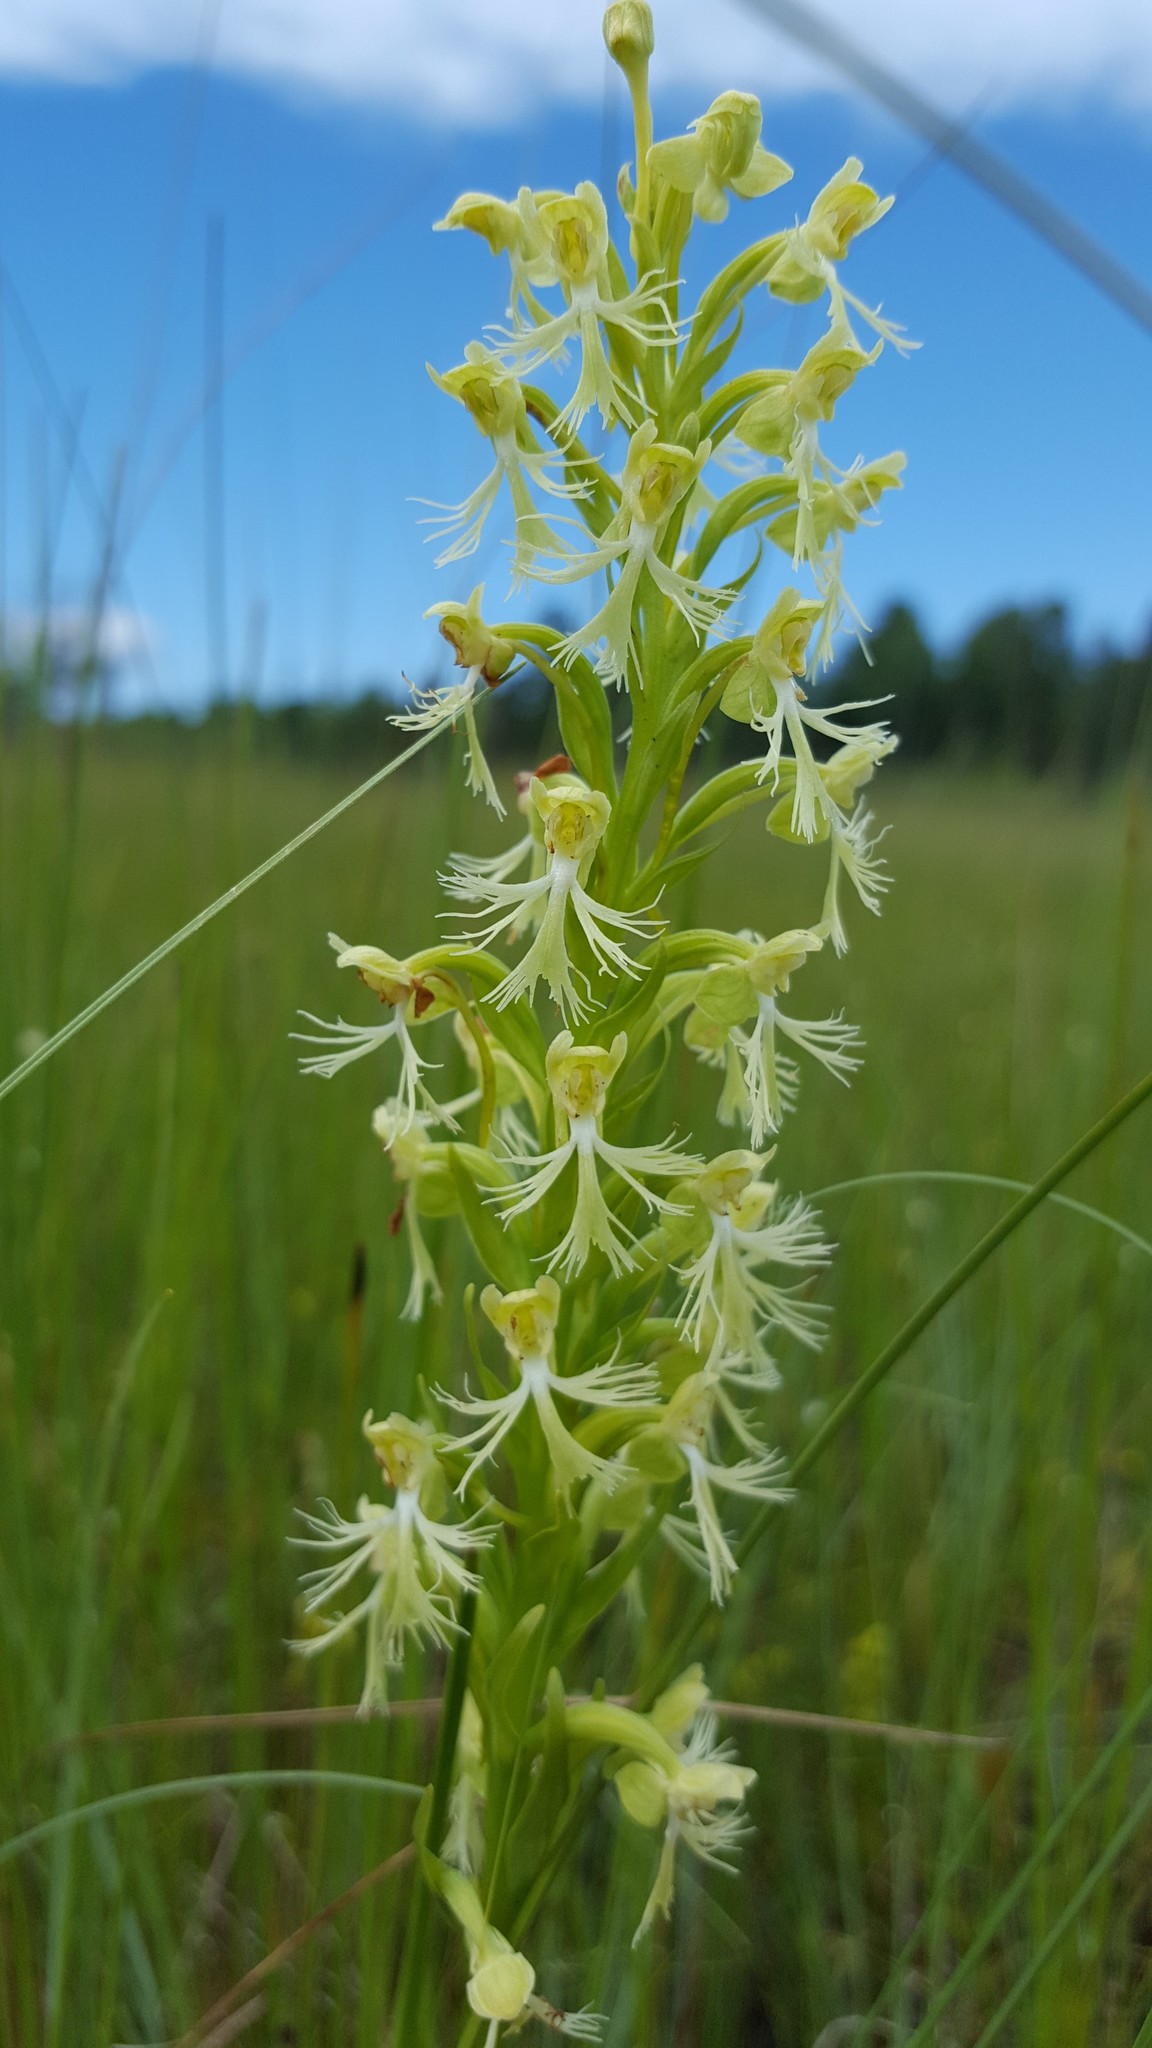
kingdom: Plantae
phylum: Tracheophyta
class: Liliopsida
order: Asparagales
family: Orchidaceae
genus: Platanthera
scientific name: Platanthera lacera
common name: Green fringed orchid
